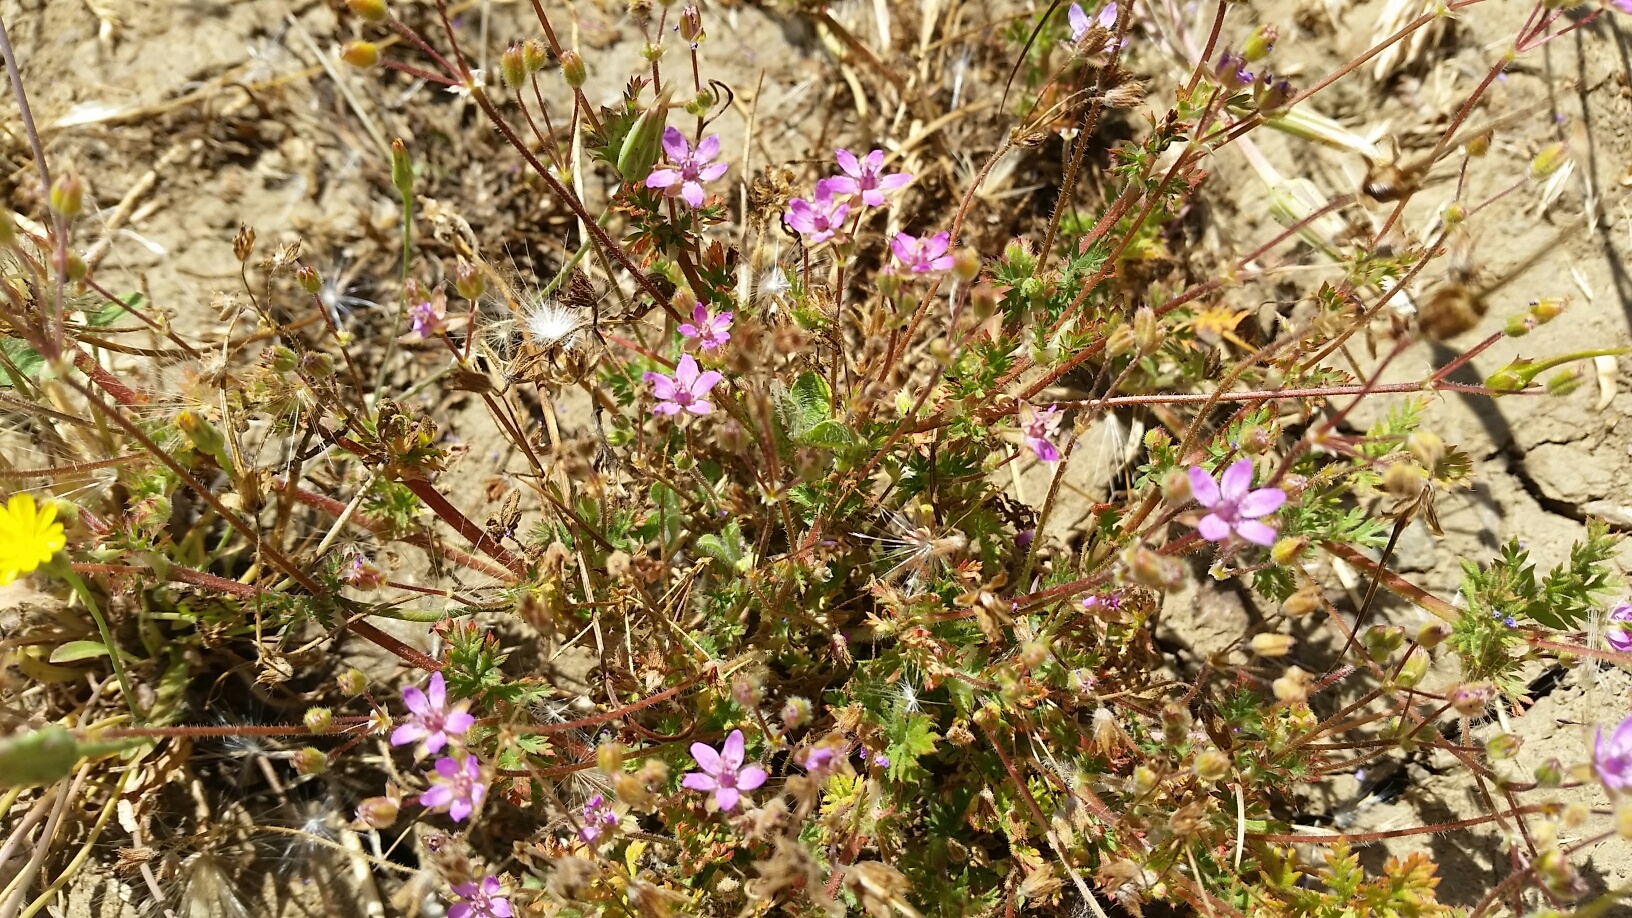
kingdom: Plantae
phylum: Tracheophyta
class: Magnoliopsida
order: Geraniales
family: Geraniaceae
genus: Erodium
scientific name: Erodium cicutarium
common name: Common stork's-bill
